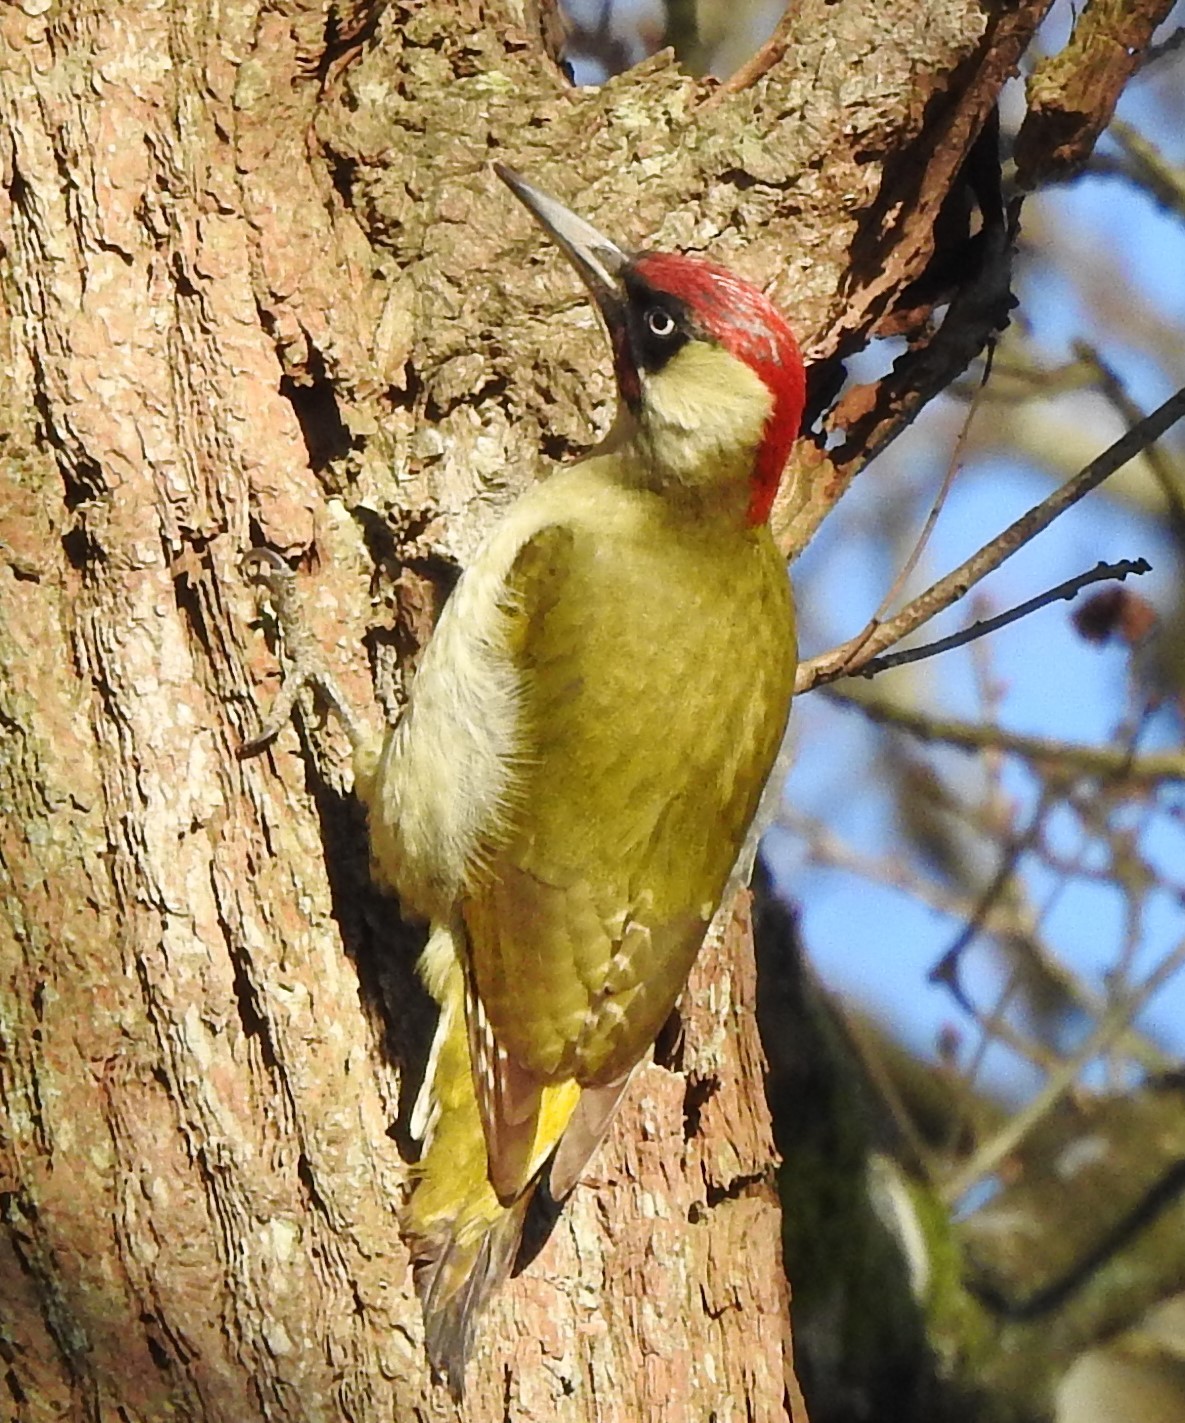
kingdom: Animalia
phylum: Chordata
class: Aves
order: Piciformes
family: Picidae
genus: Picus
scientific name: Picus viridis
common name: European green woodpecker
